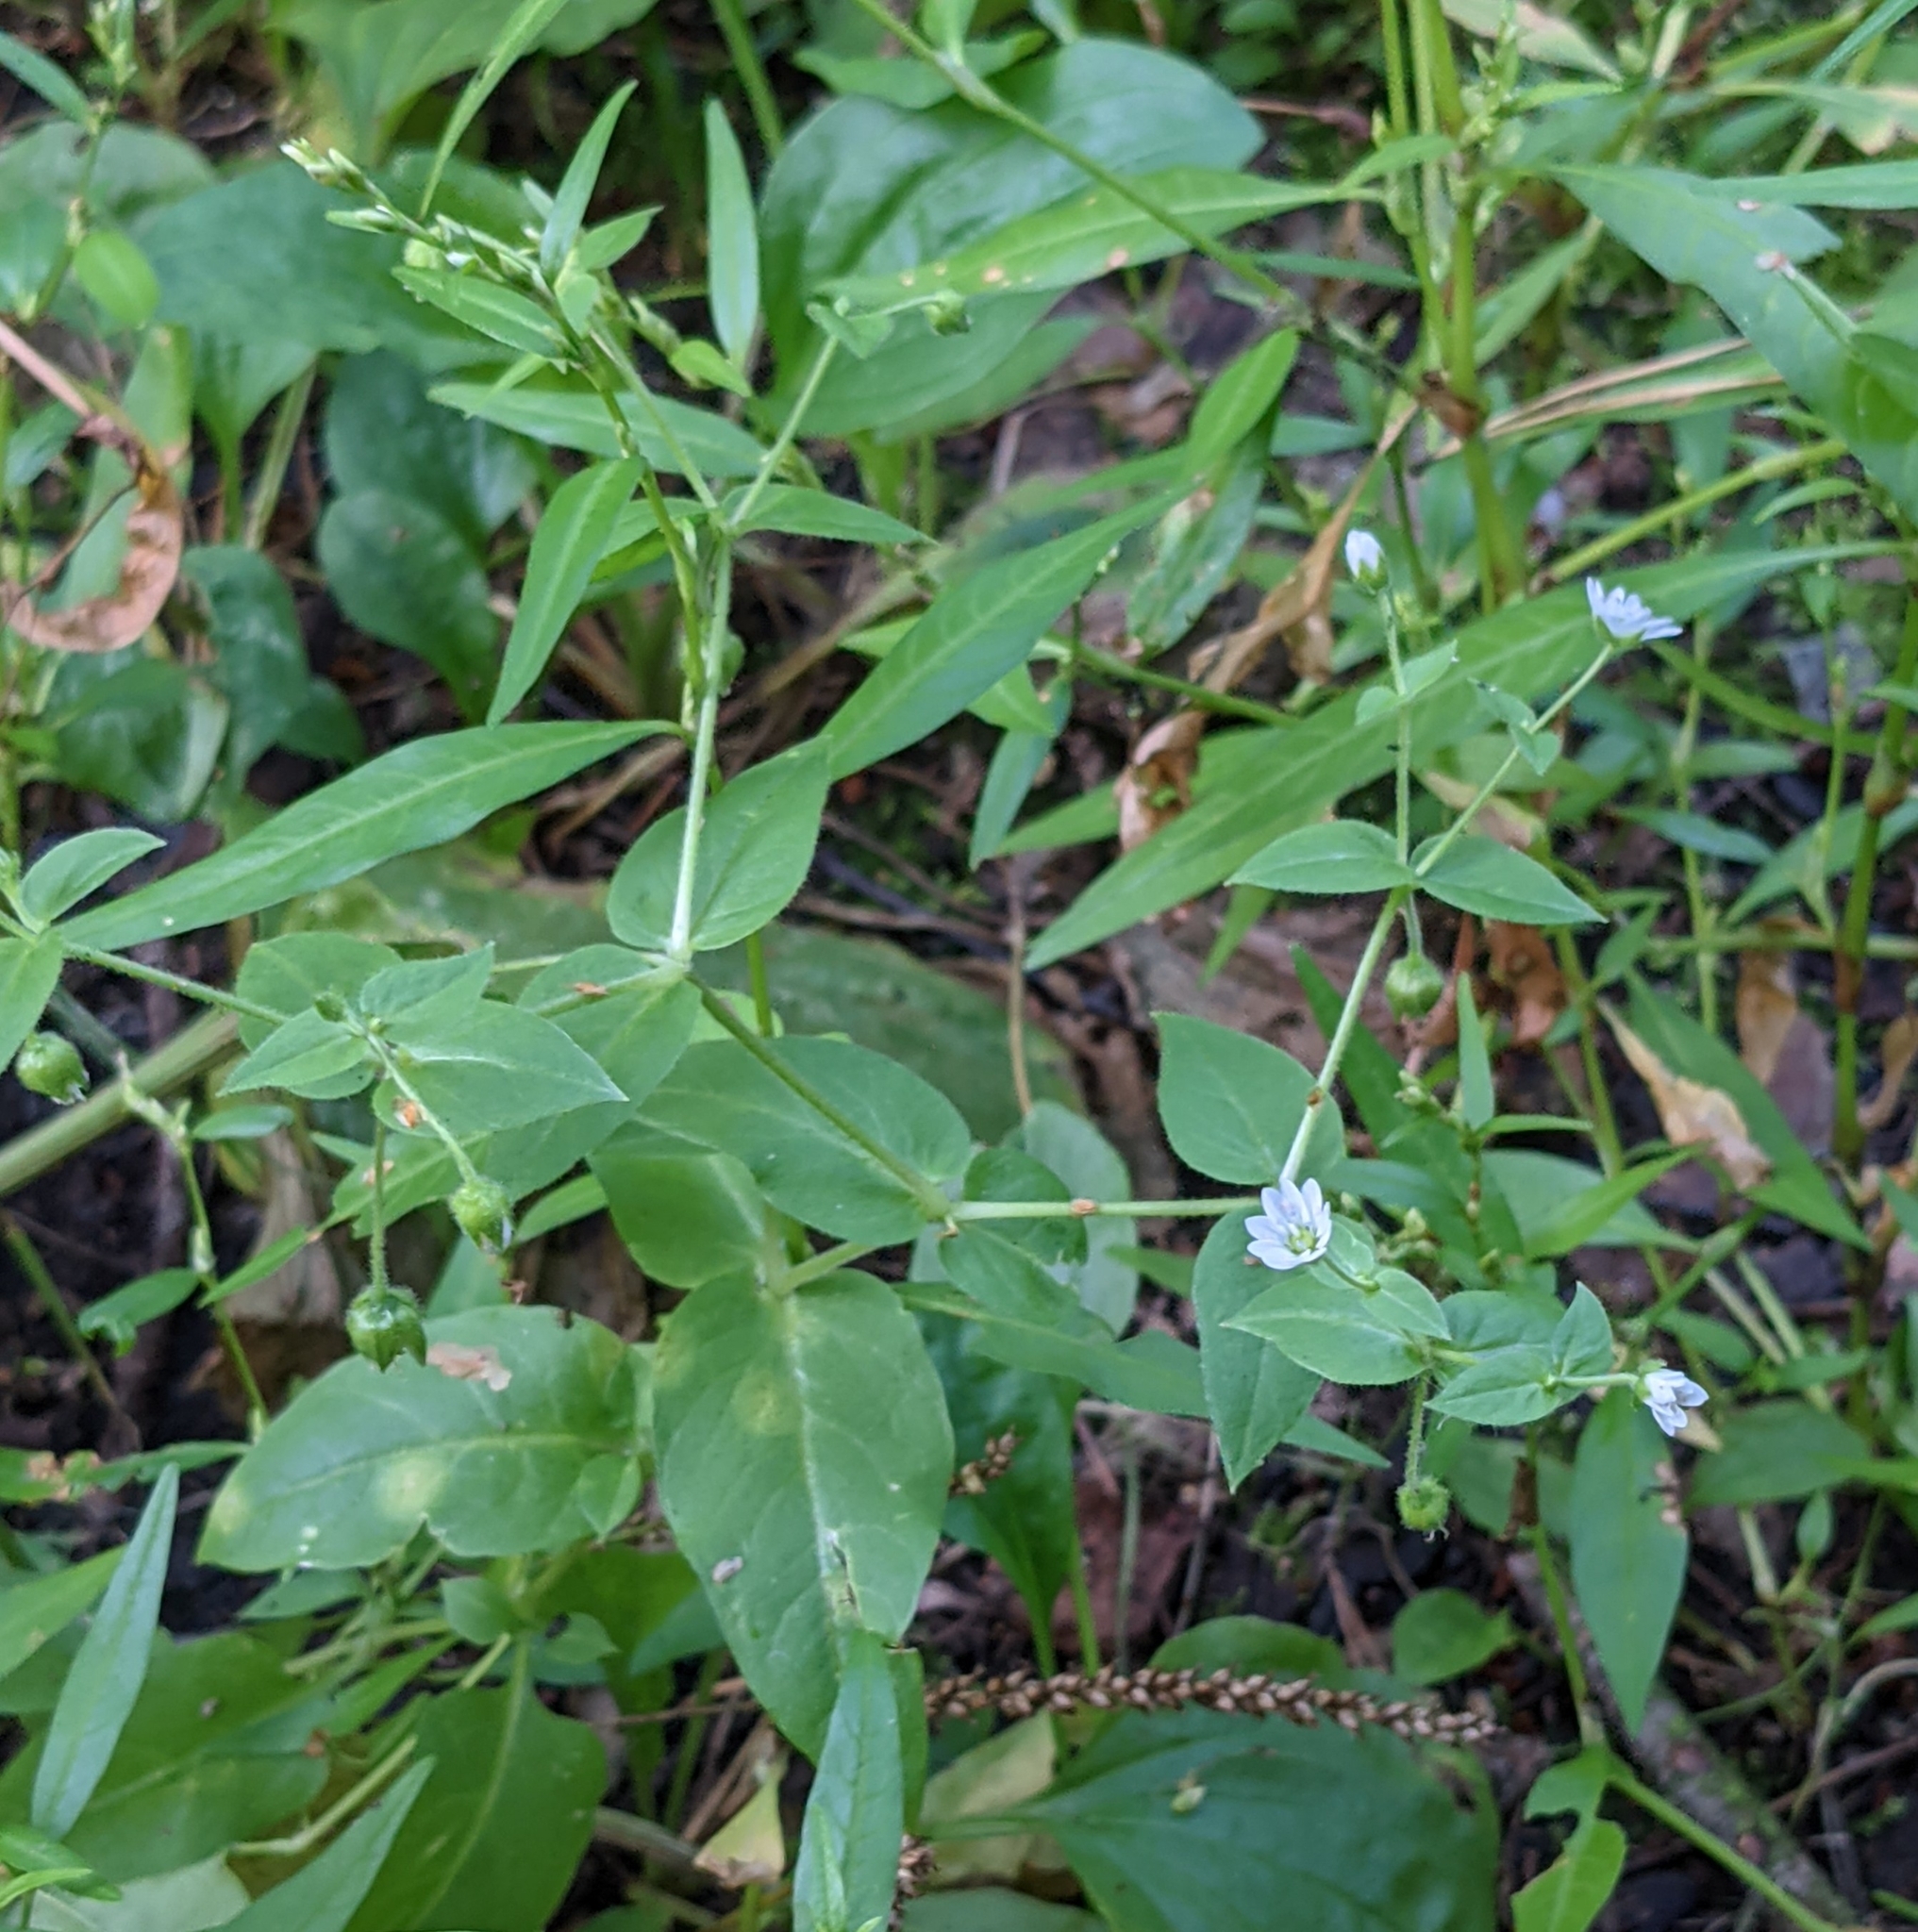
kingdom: Plantae
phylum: Tracheophyta
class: Magnoliopsida
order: Caryophyllales
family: Caryophyllaceae
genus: Stellaria
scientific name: Stellaria aquatica
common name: Water chickweed
